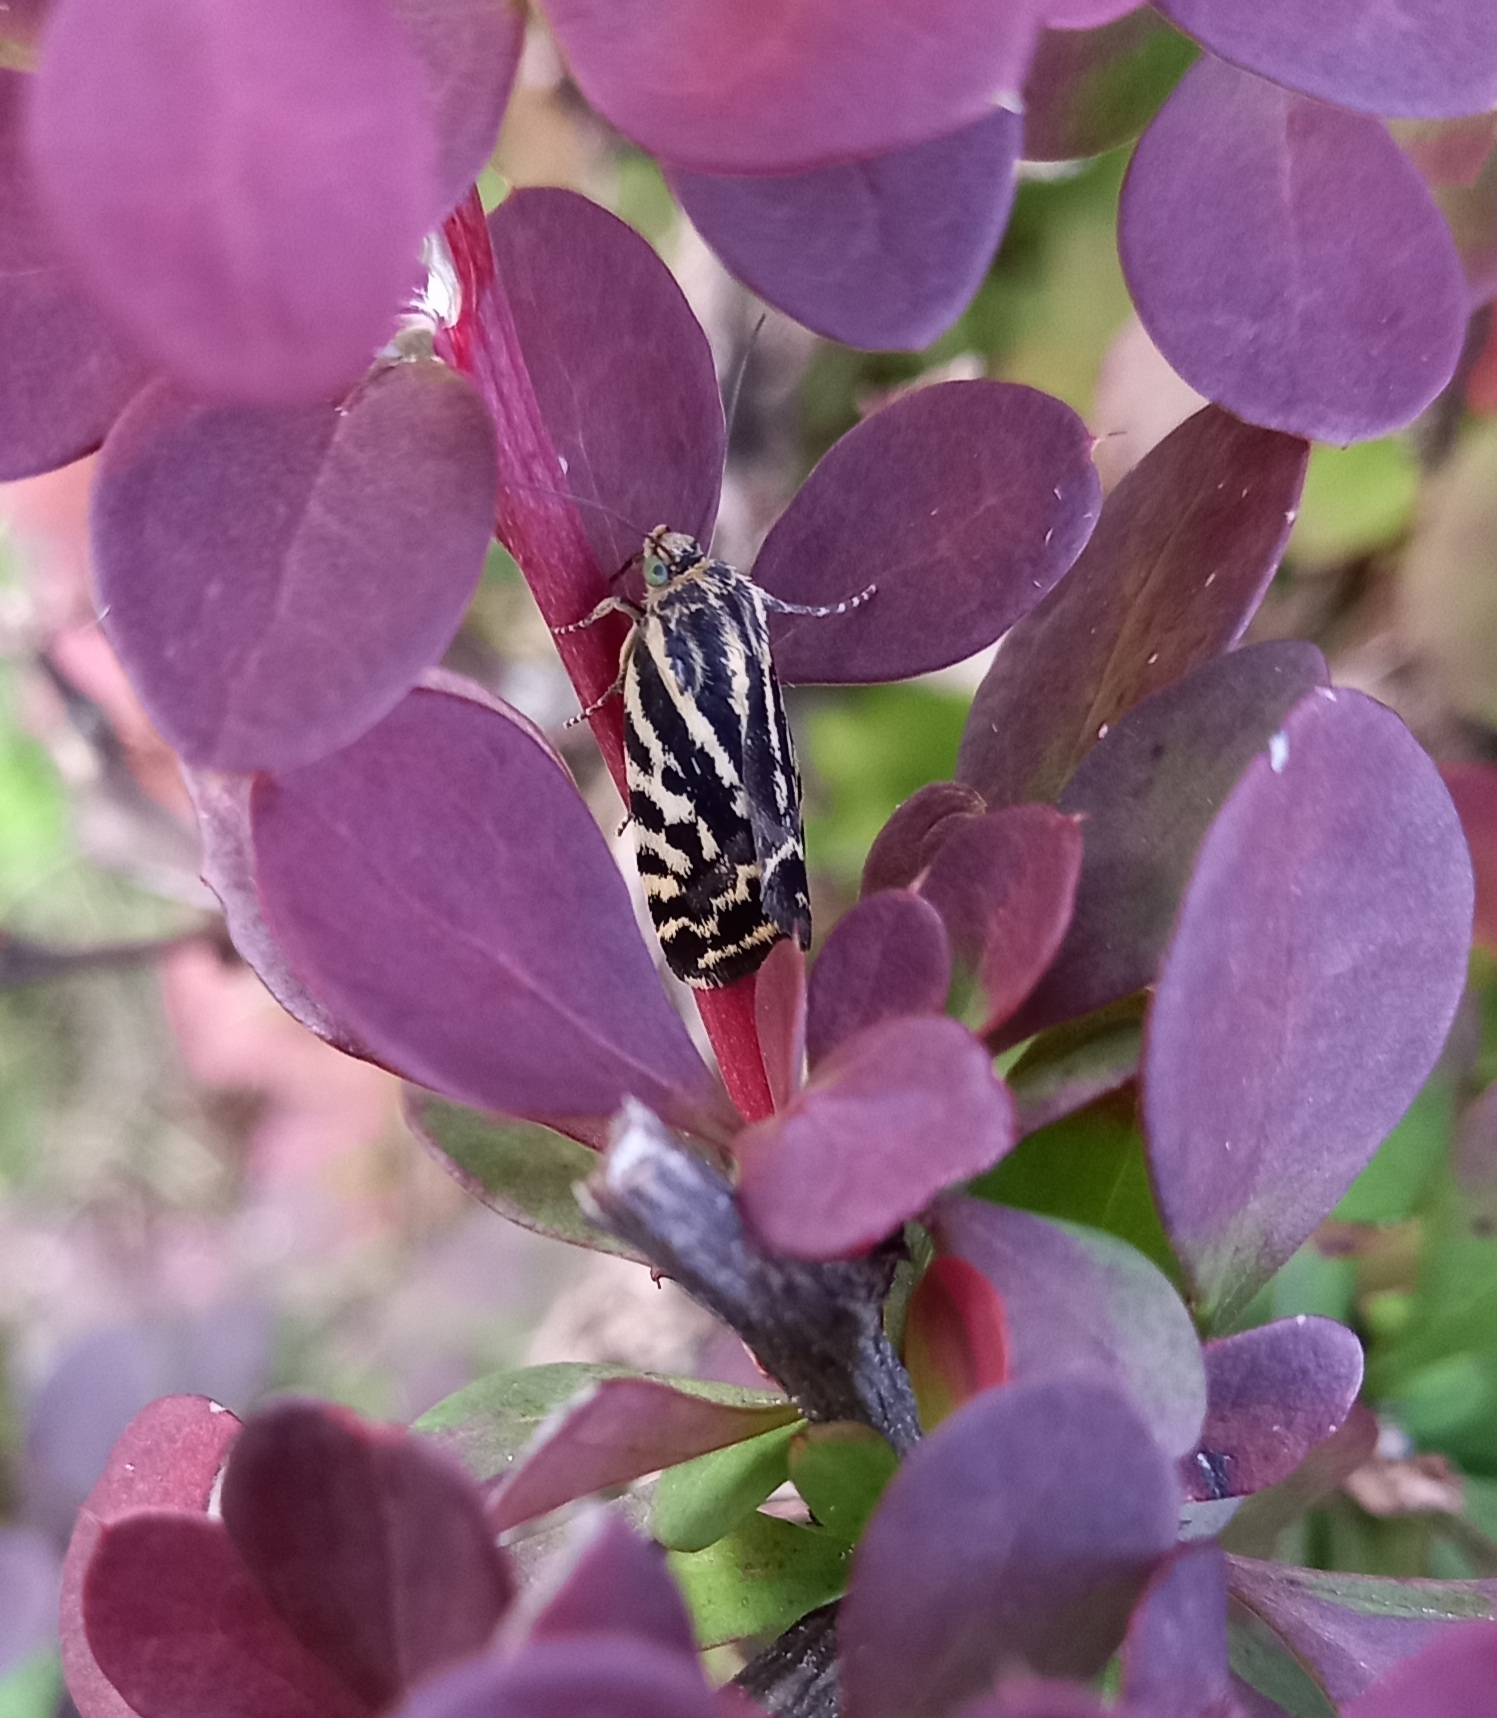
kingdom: Animalia
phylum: Arthropoda
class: Insecta
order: Lepidoptera
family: Noctuidae
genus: Acontia
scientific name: Acontia trabealis
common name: Spotted sulphur
